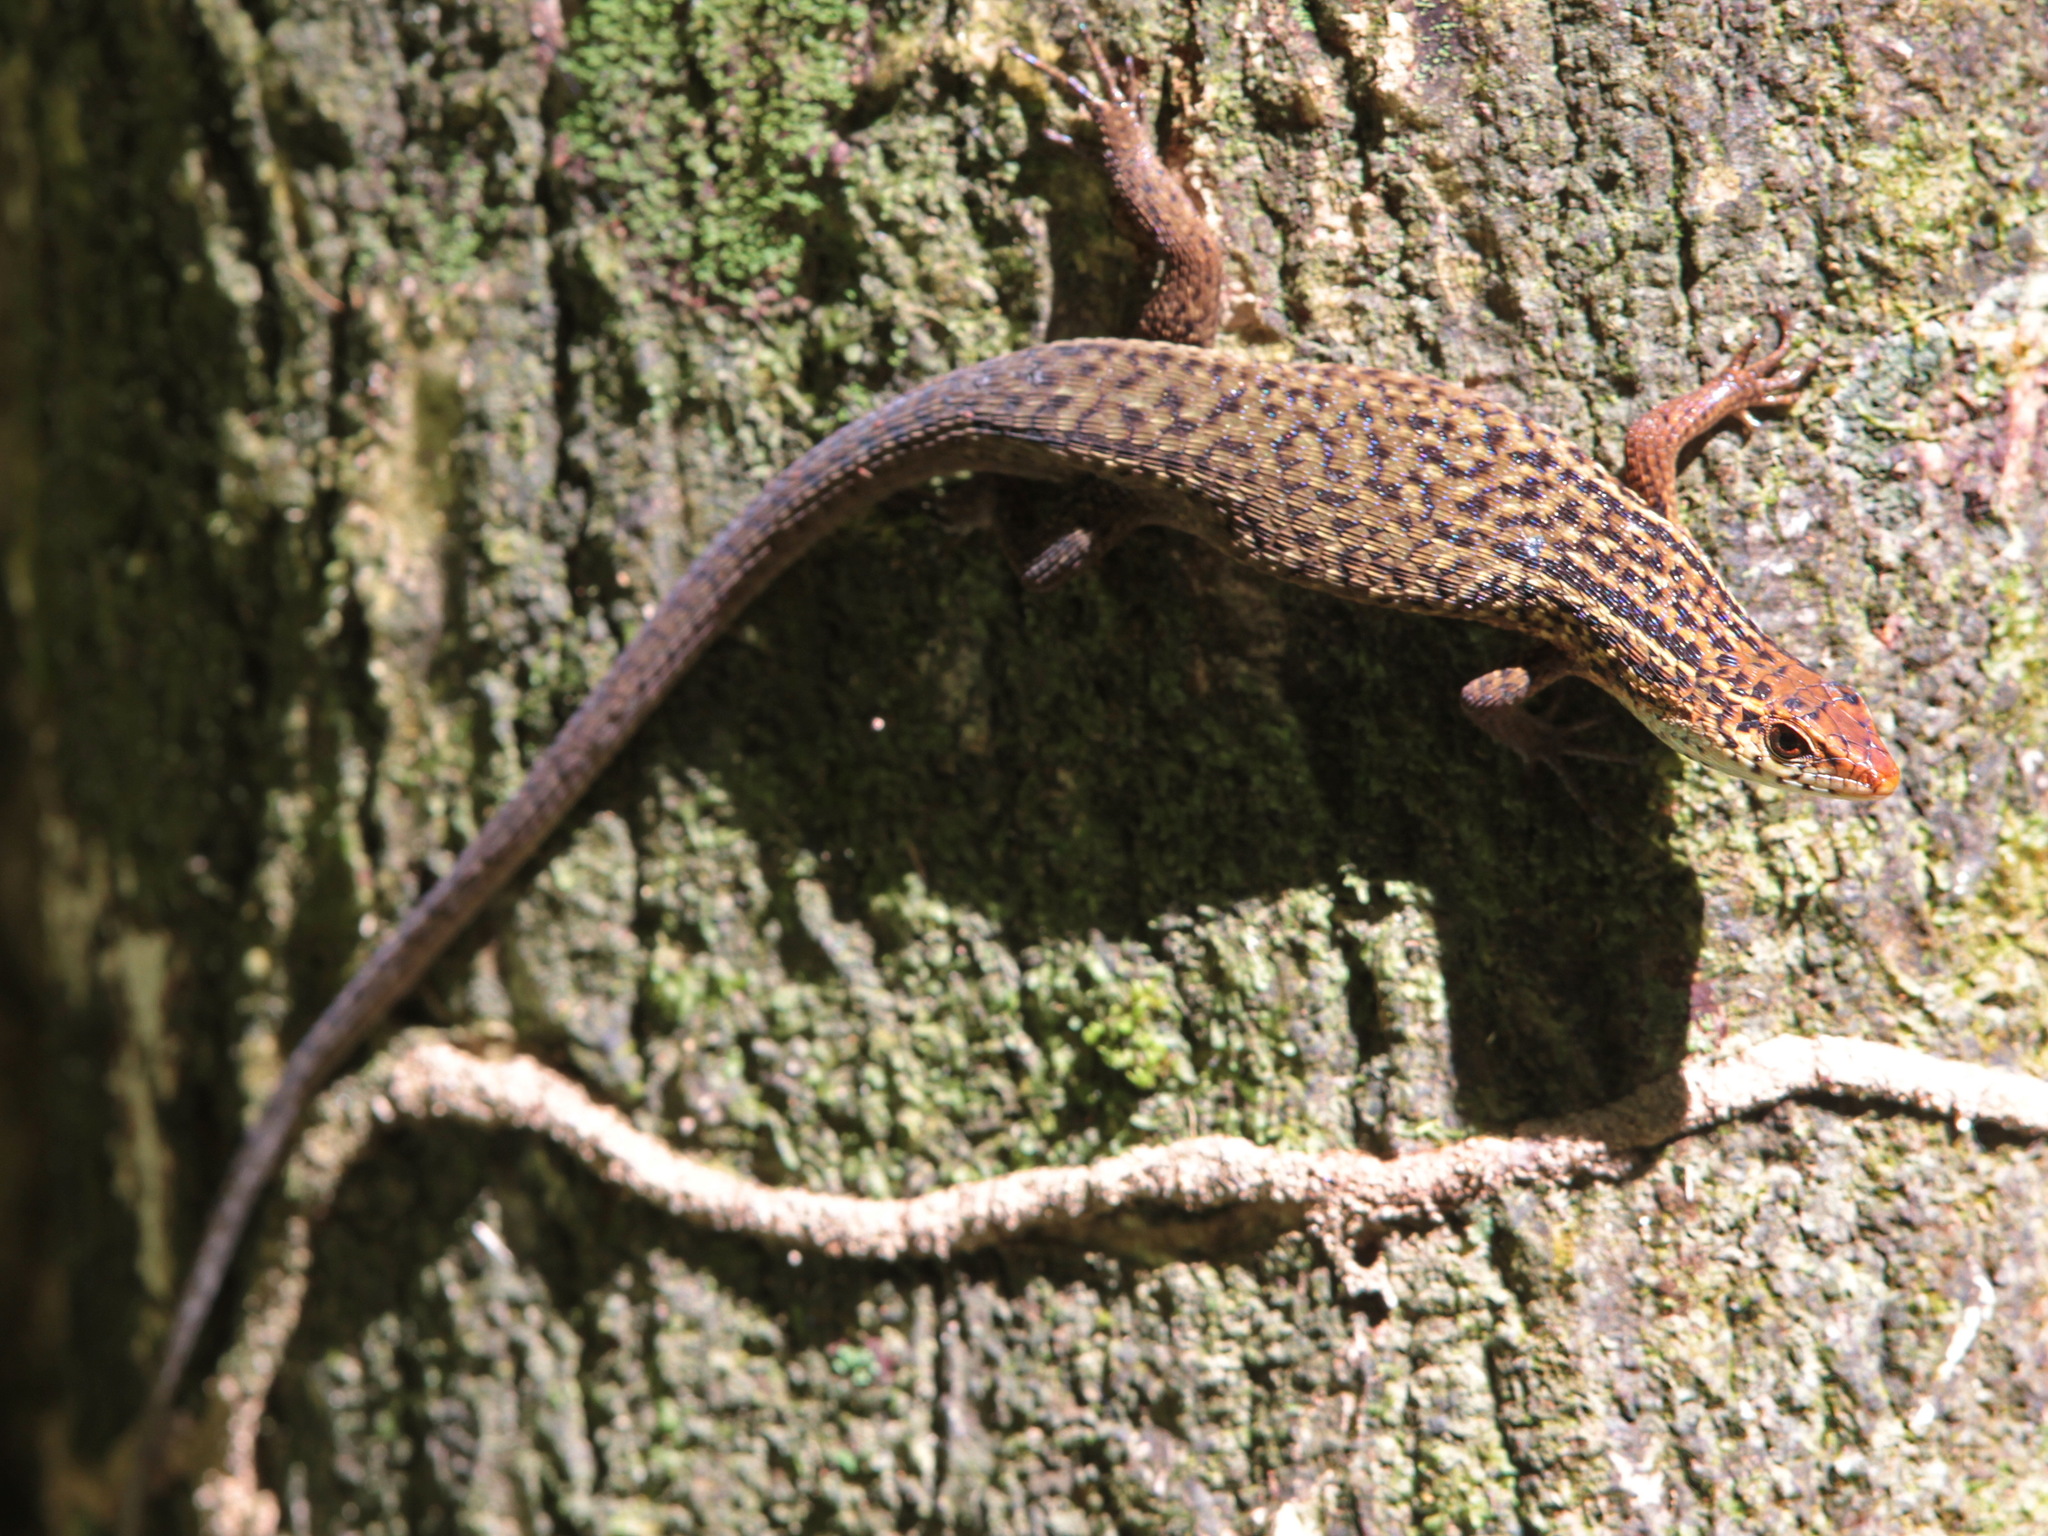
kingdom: Animalia
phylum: Chordata
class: Squamata
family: Scincidae
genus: Eutropis
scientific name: Eutropis rugifera
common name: Rough-scaled sun skink
